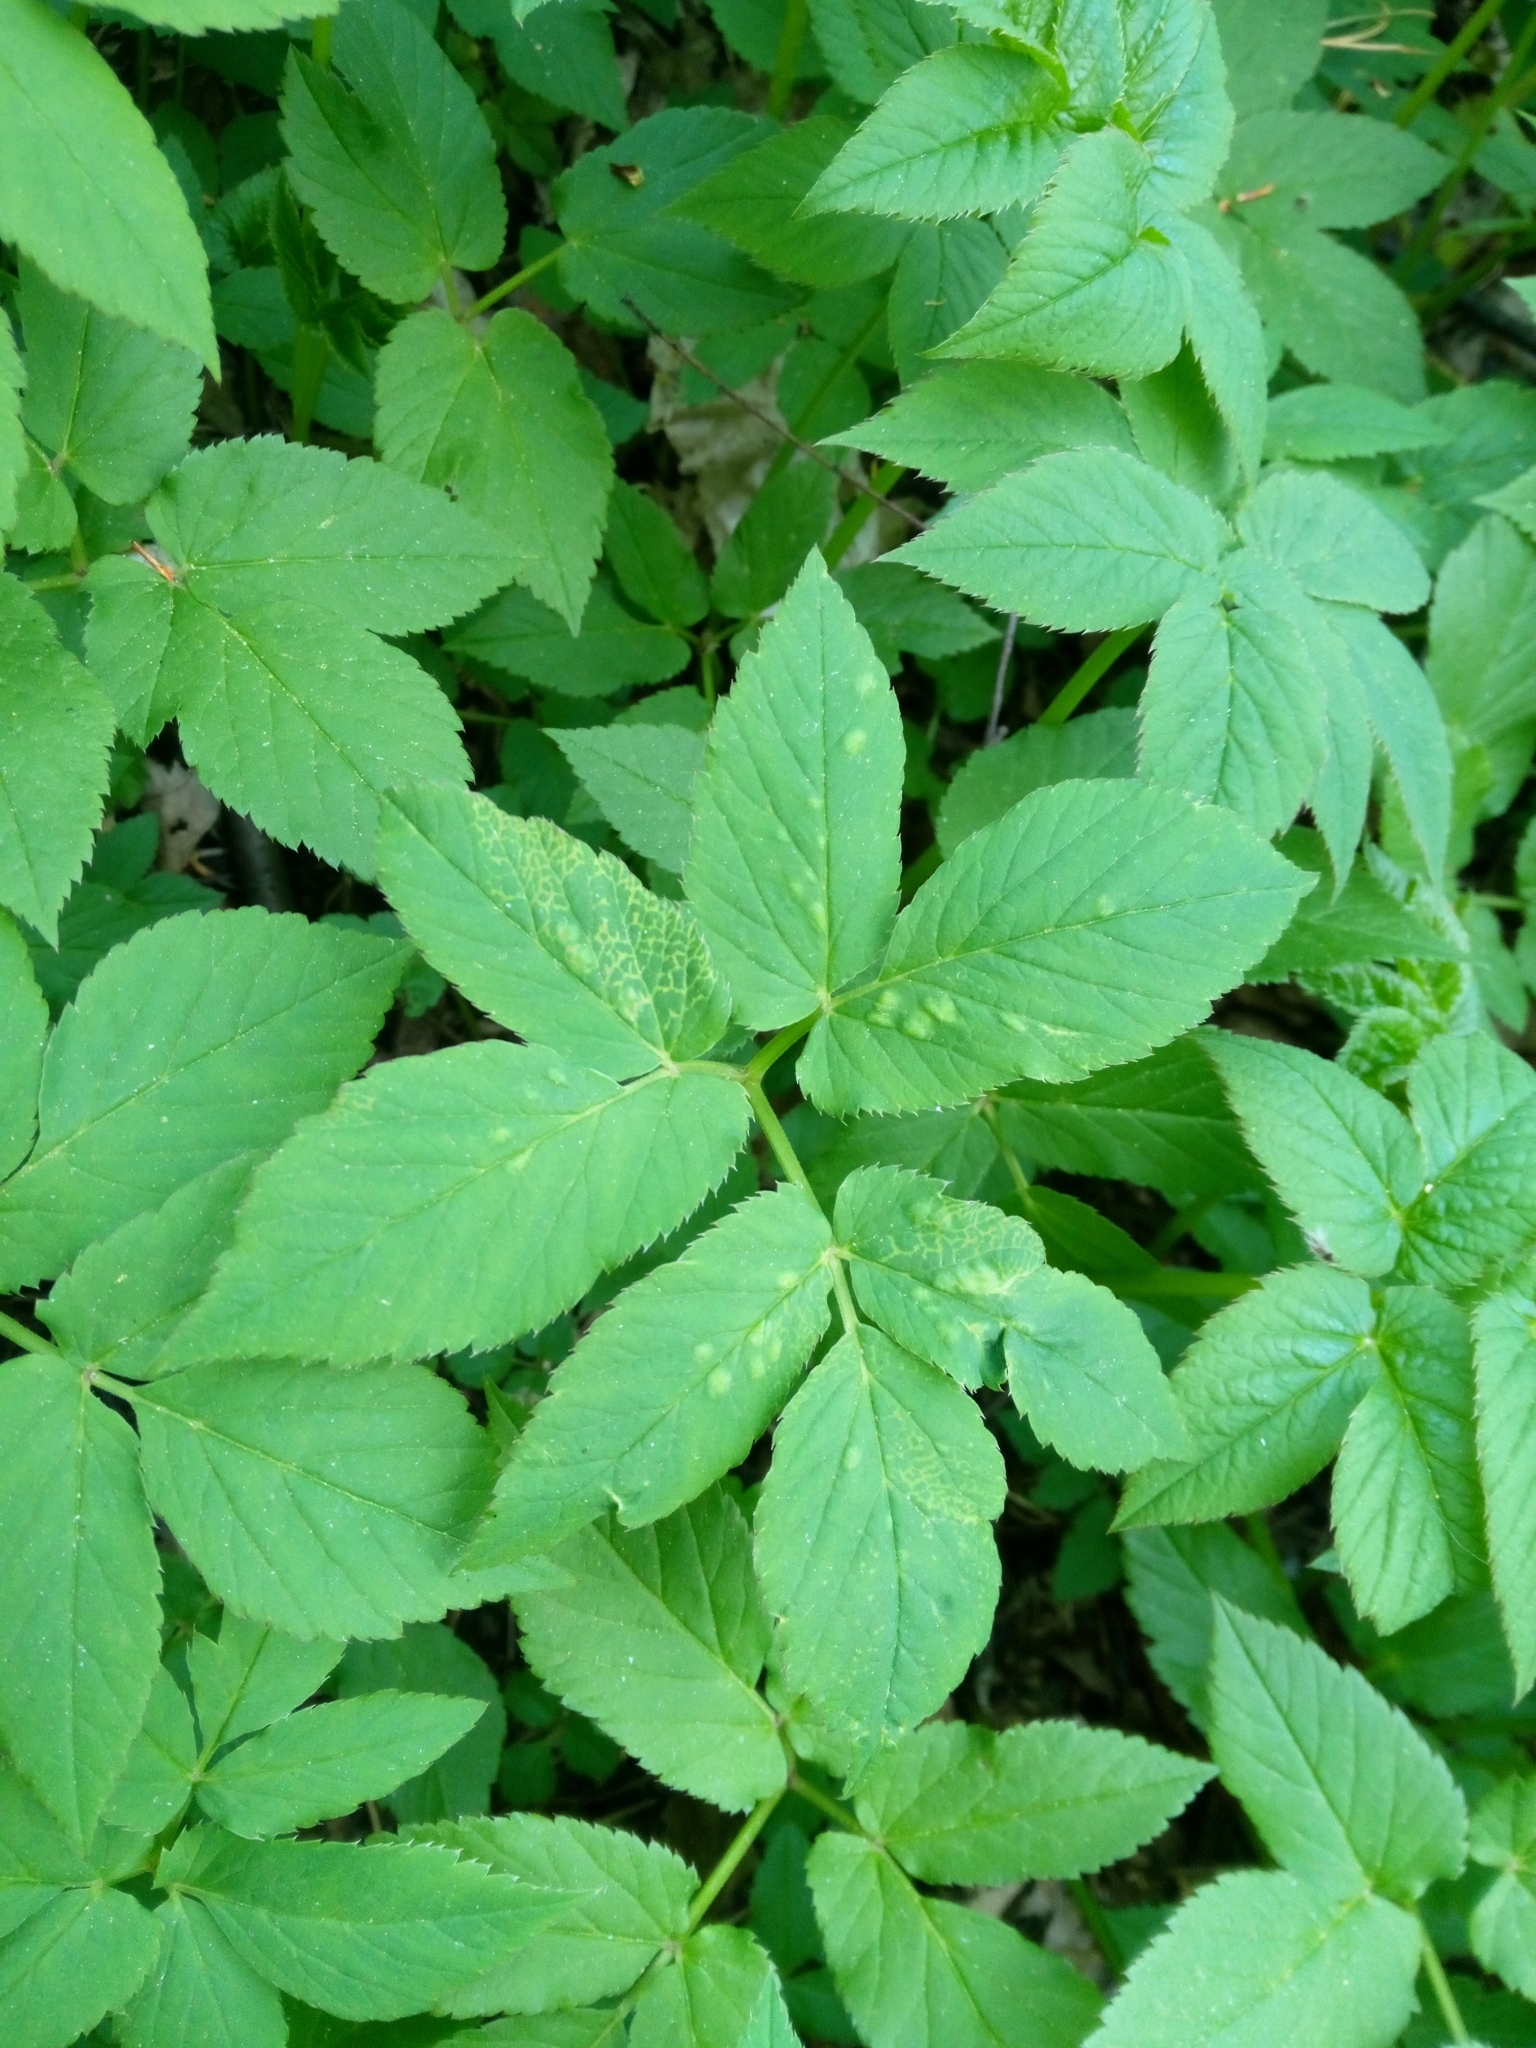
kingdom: Animalia
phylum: Arthropoda
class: Insecta
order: Hemiptera
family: Triozidae
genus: Trioza
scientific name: Trioza flavipennis
